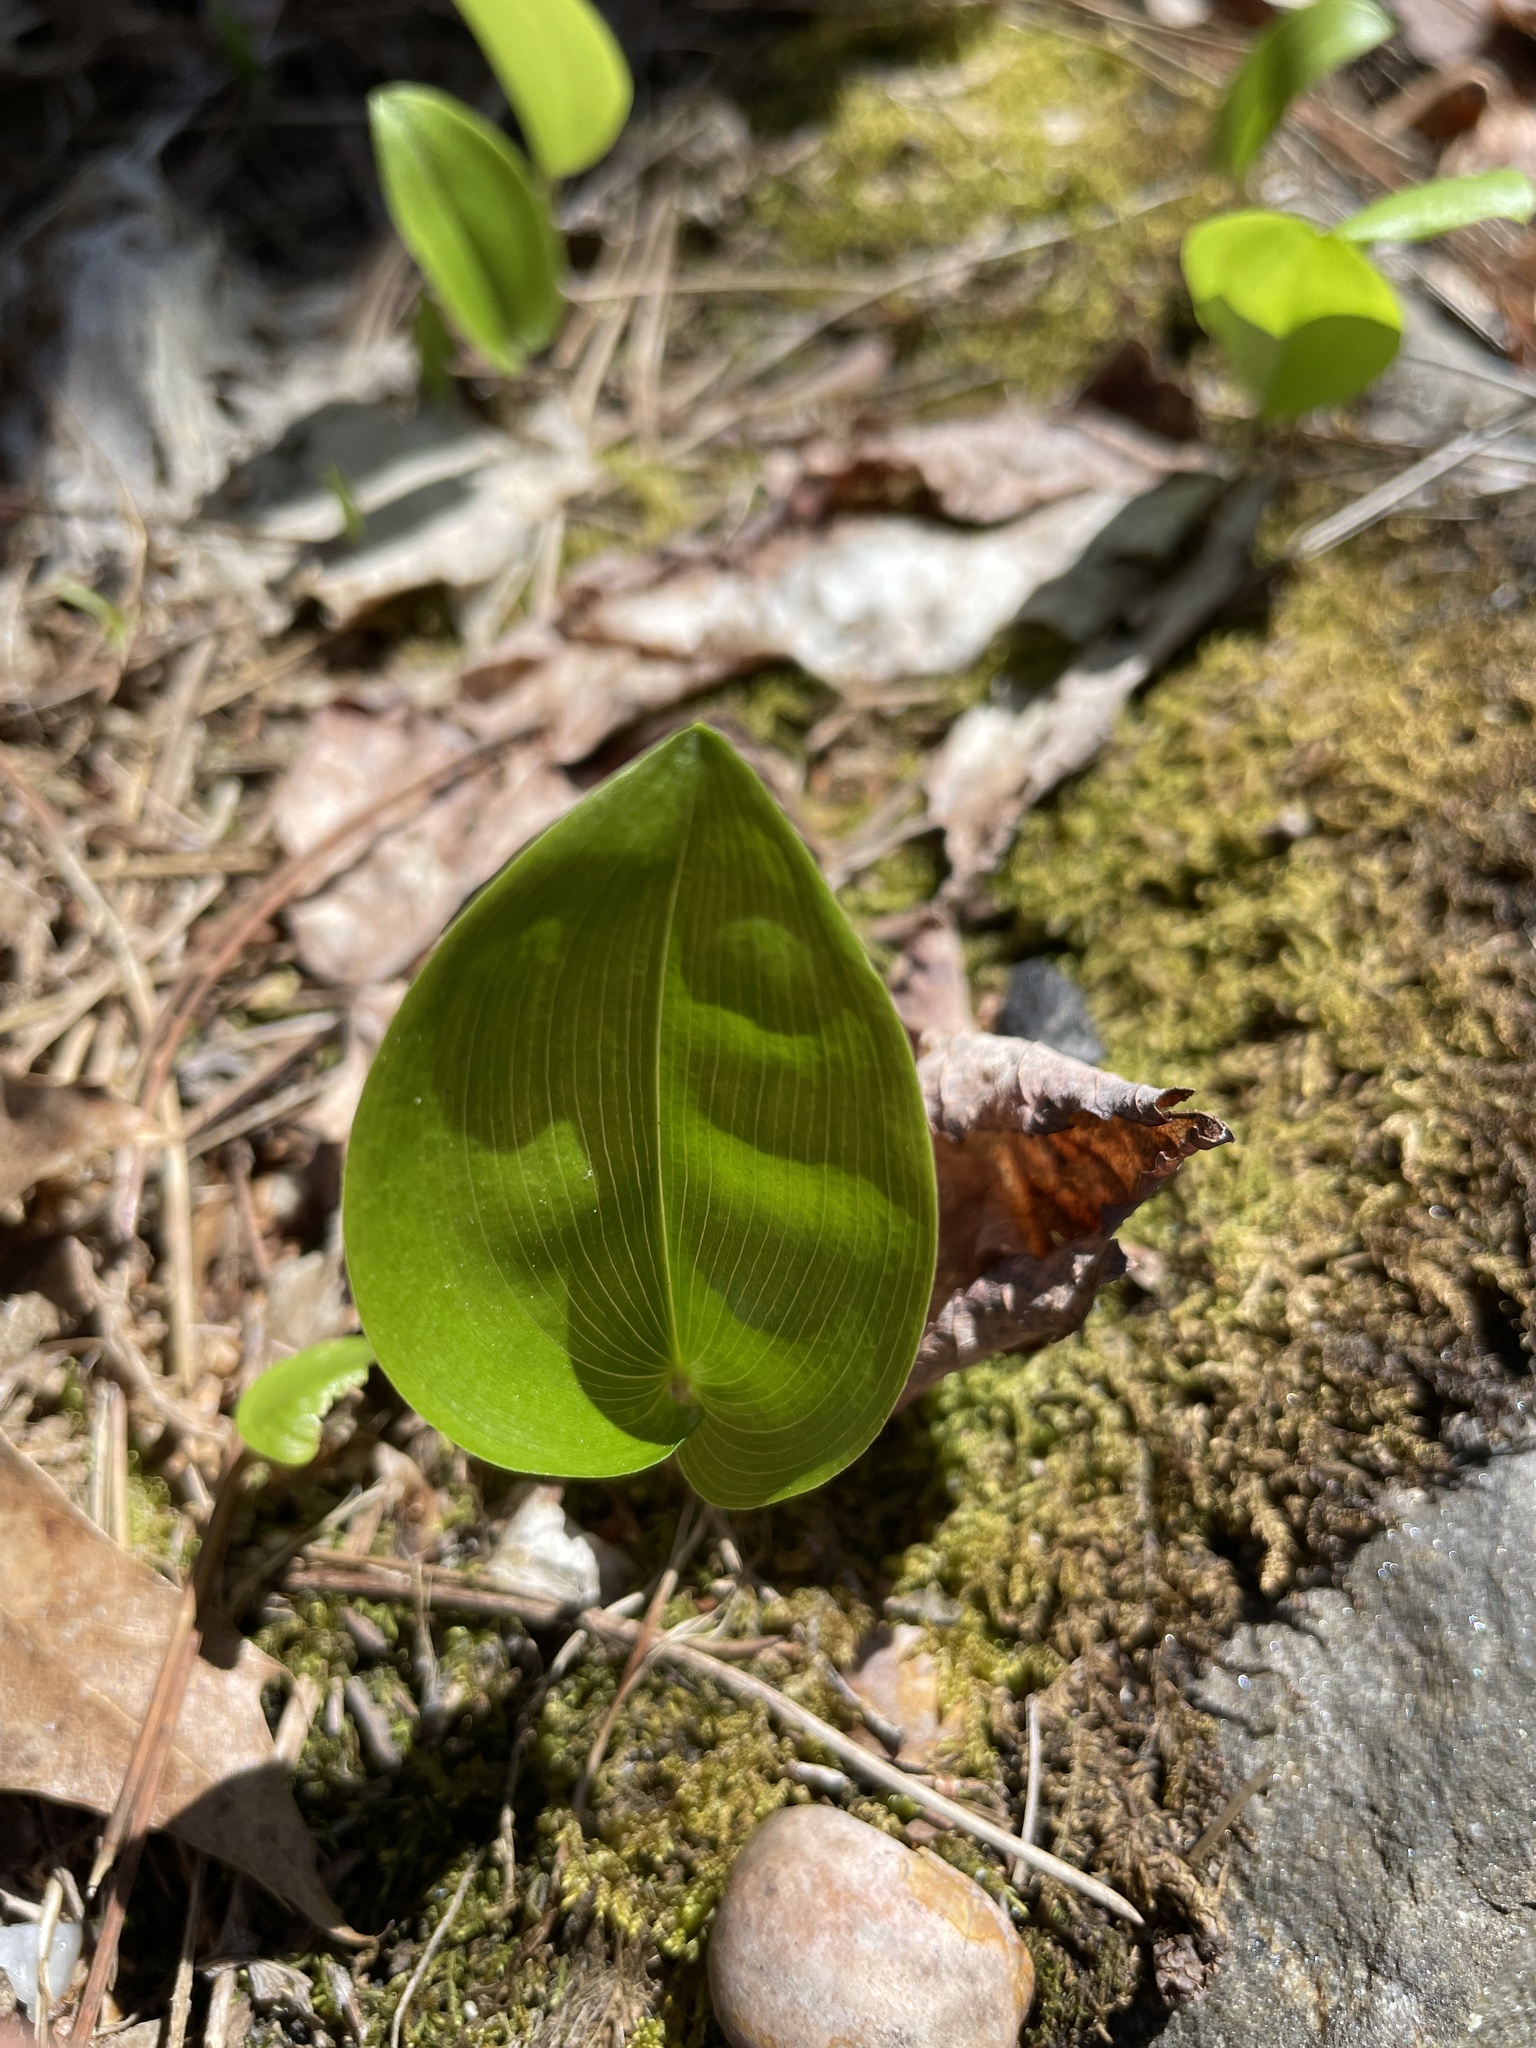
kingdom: Plantae
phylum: Tracheophyta
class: Liliopsida
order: Asparagales
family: Asparagaceae
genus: Maianthemum
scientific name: Maianthemum canadense
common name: False lily-of-the-valley
